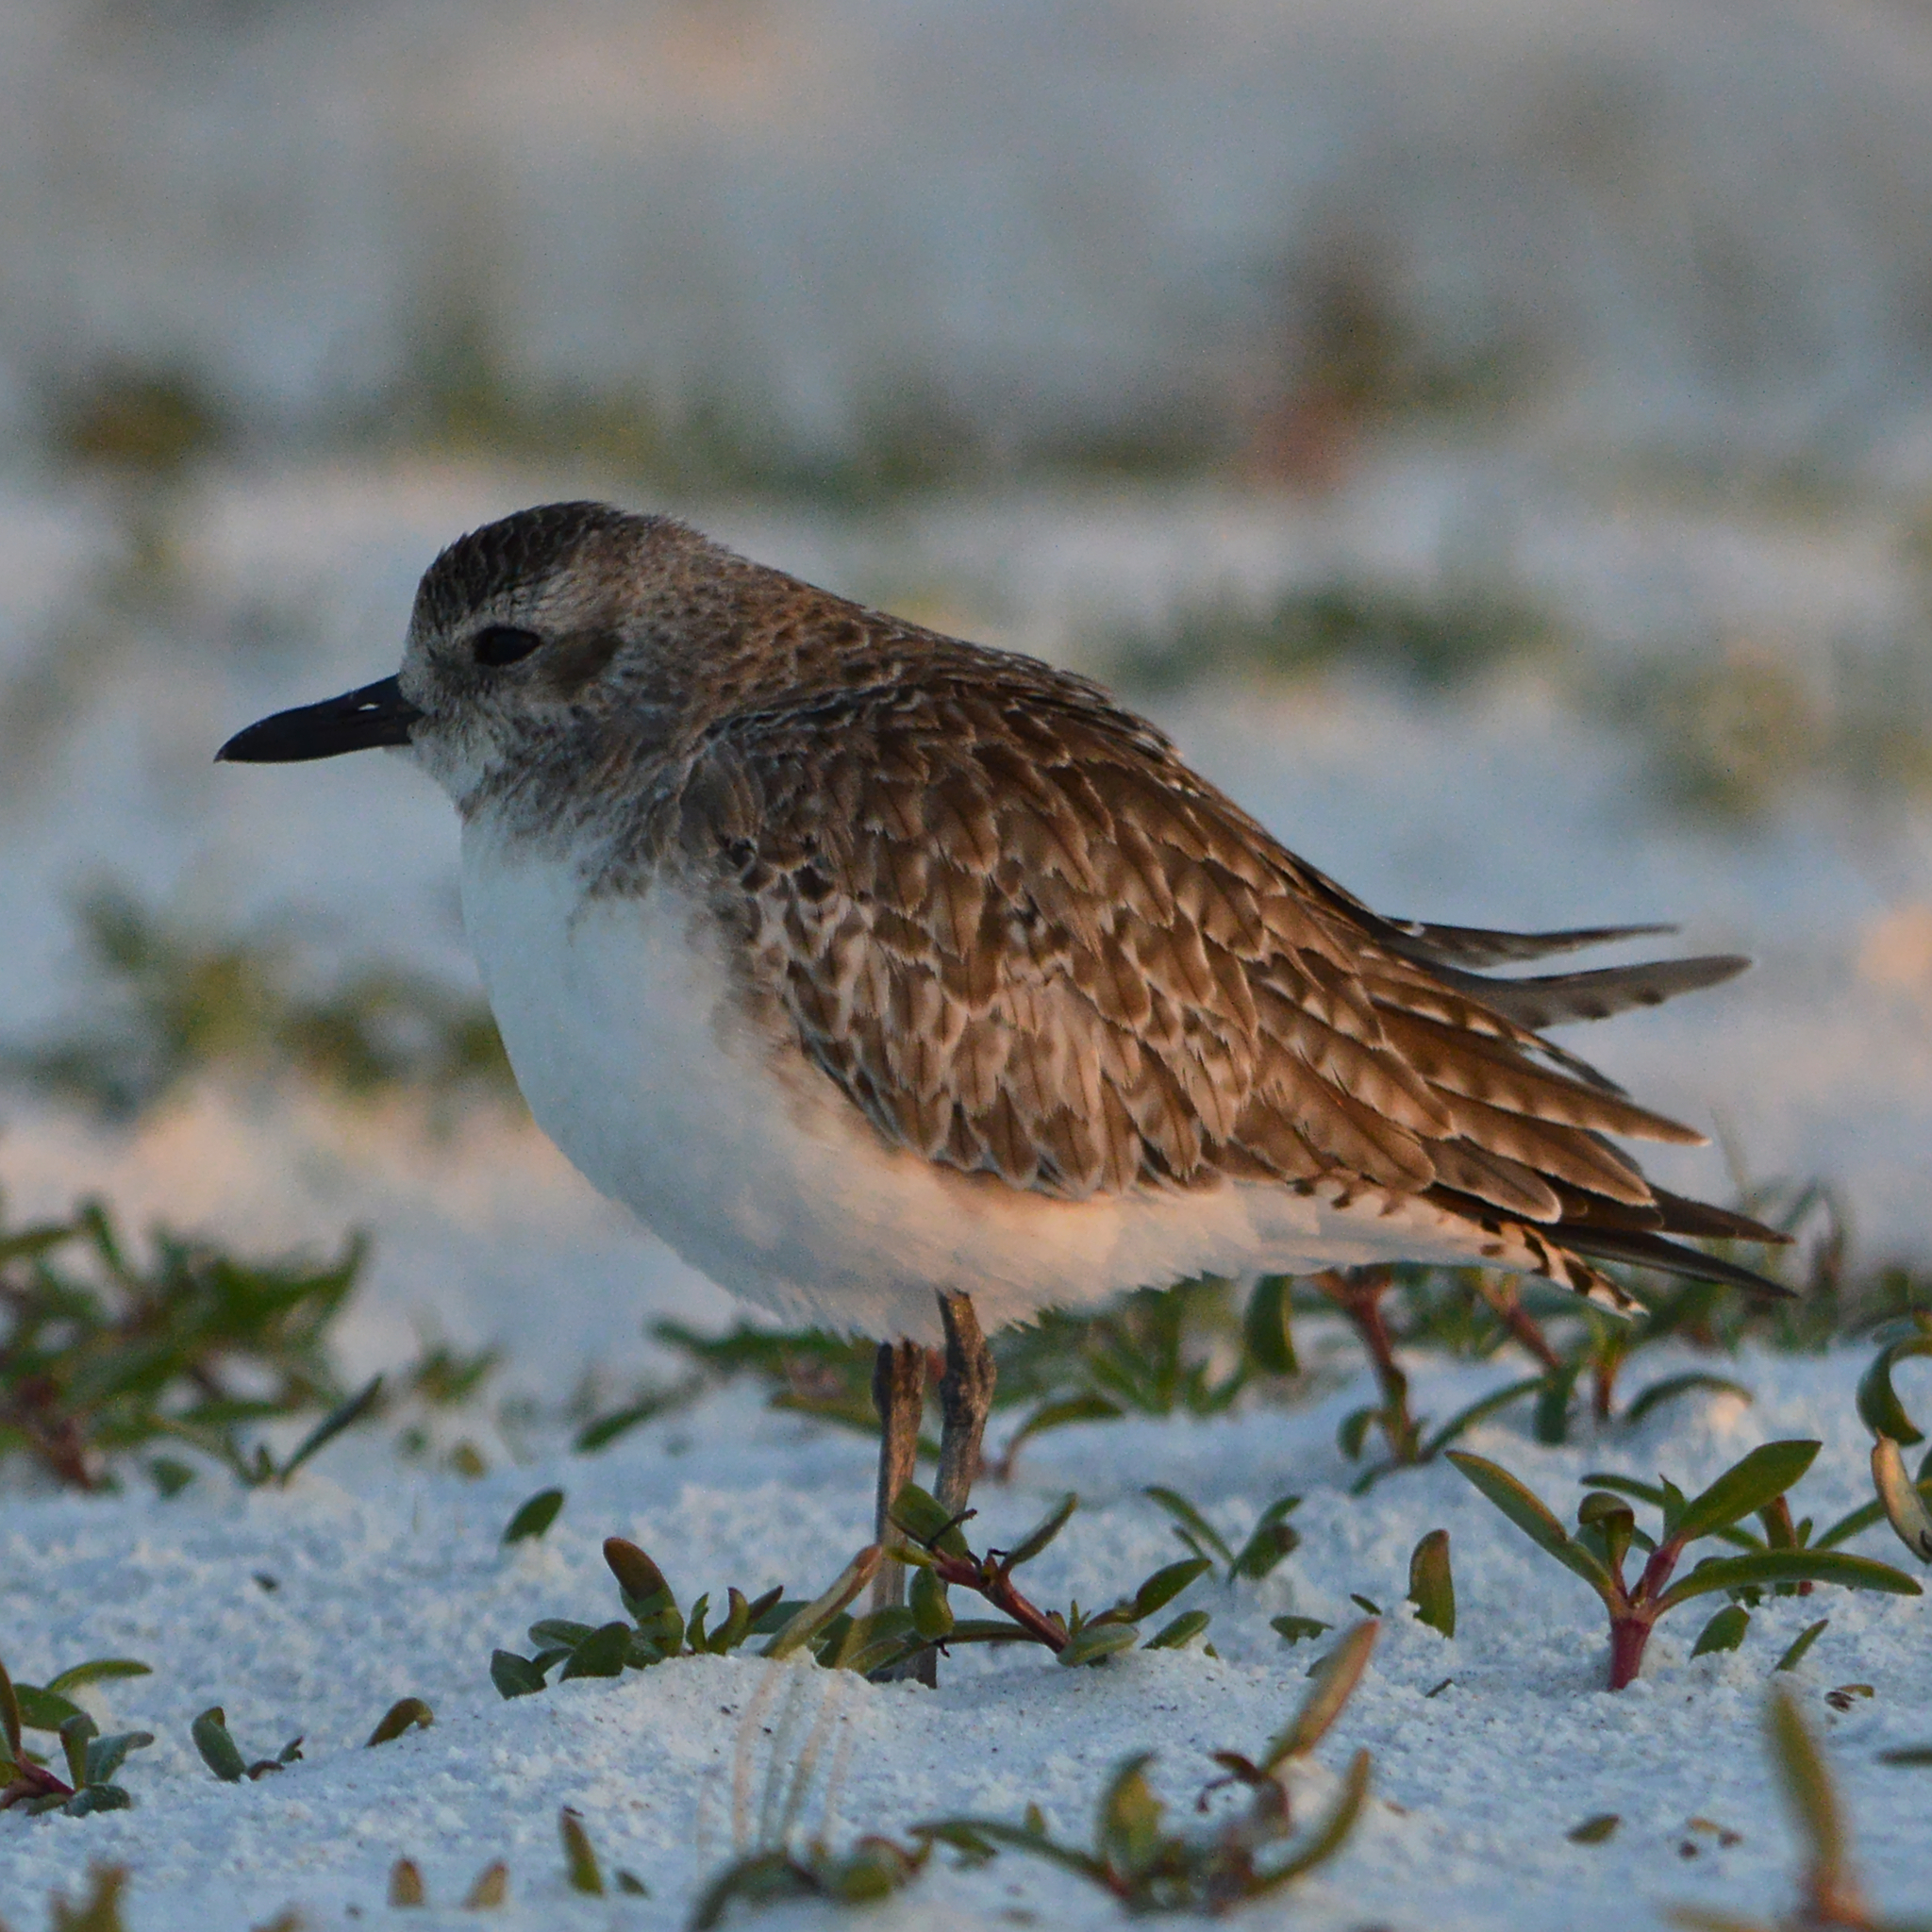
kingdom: Animalia
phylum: Chordata
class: Aves
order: Charadriiformes
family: Charadriidae
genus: Pluvialis
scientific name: Pluvialis squatarola
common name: Grey plover
